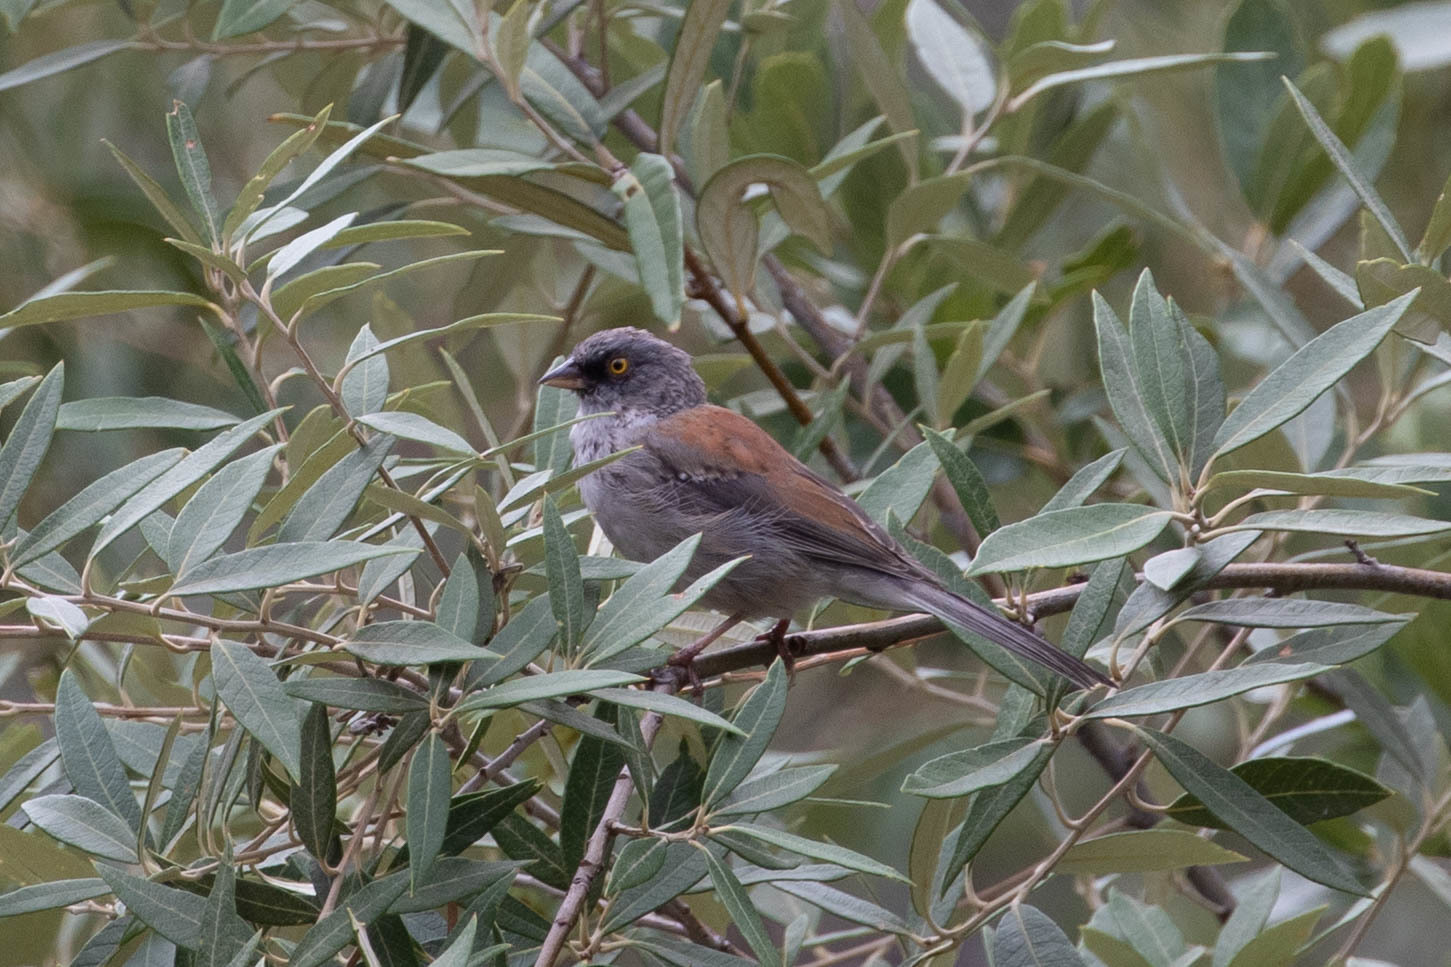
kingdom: Animalia
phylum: Chordata
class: Aves
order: Passeriformes
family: Passerellidae
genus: Junco
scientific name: Junco phaeonotus
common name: Yellow-eyed junco
